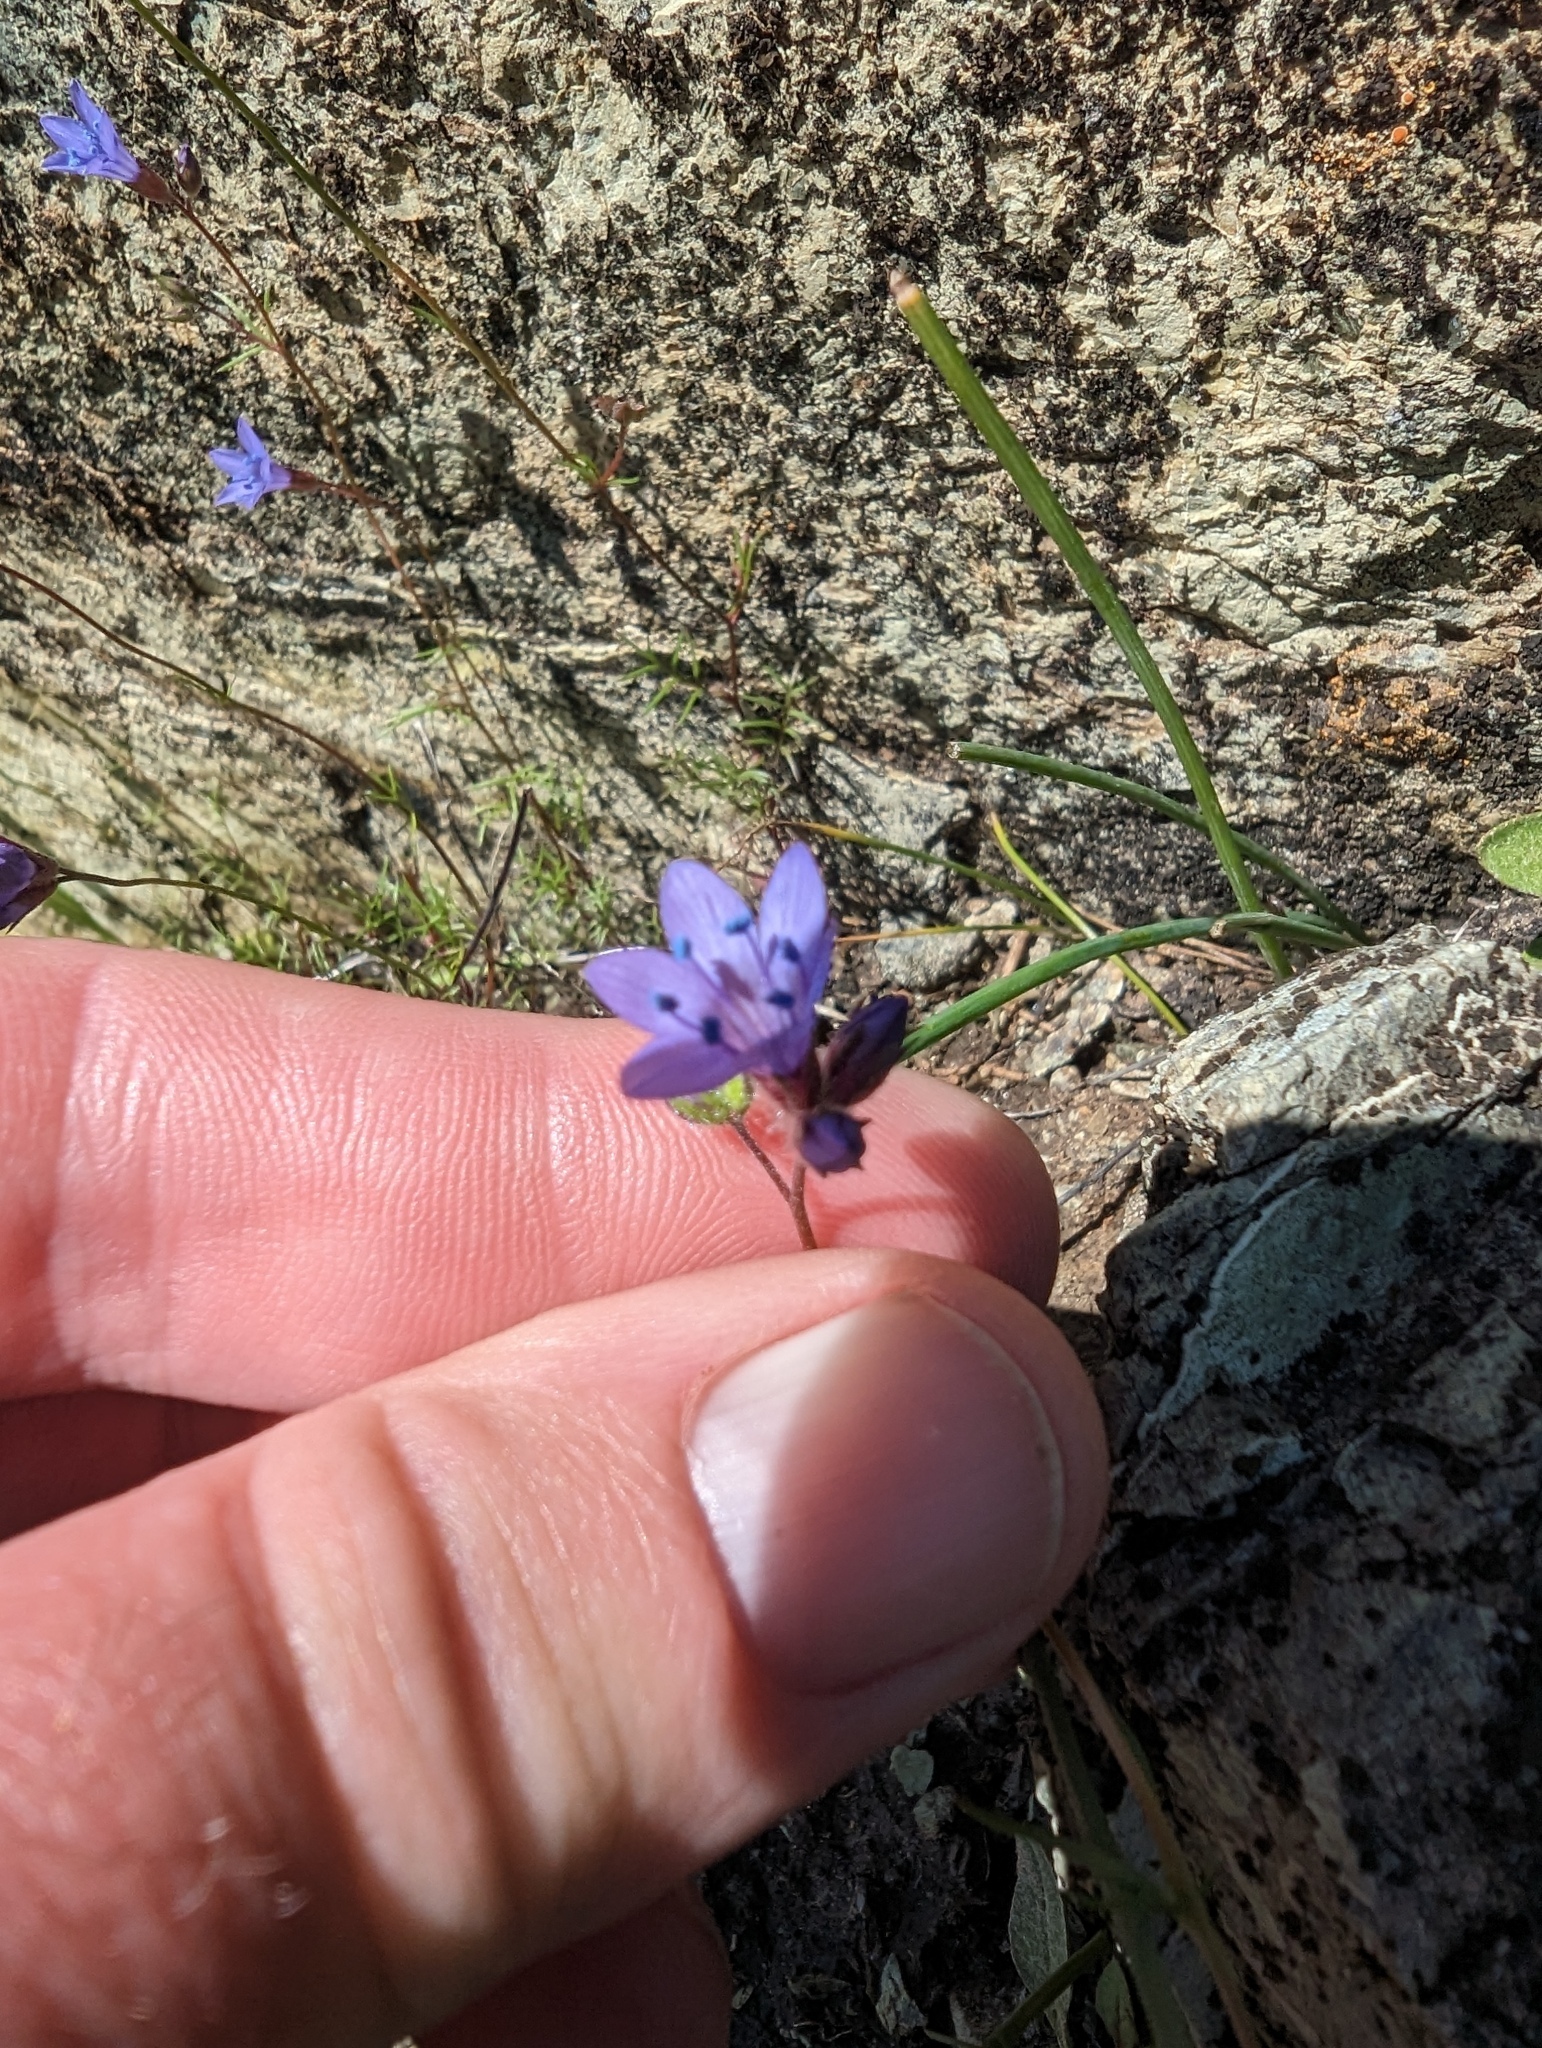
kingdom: Plantae
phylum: Tracheophyta
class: Magnoliopsida
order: Ericales
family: Polemoniaceae
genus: Gilia
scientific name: Gilia achilleifolia
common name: California gily-flower
